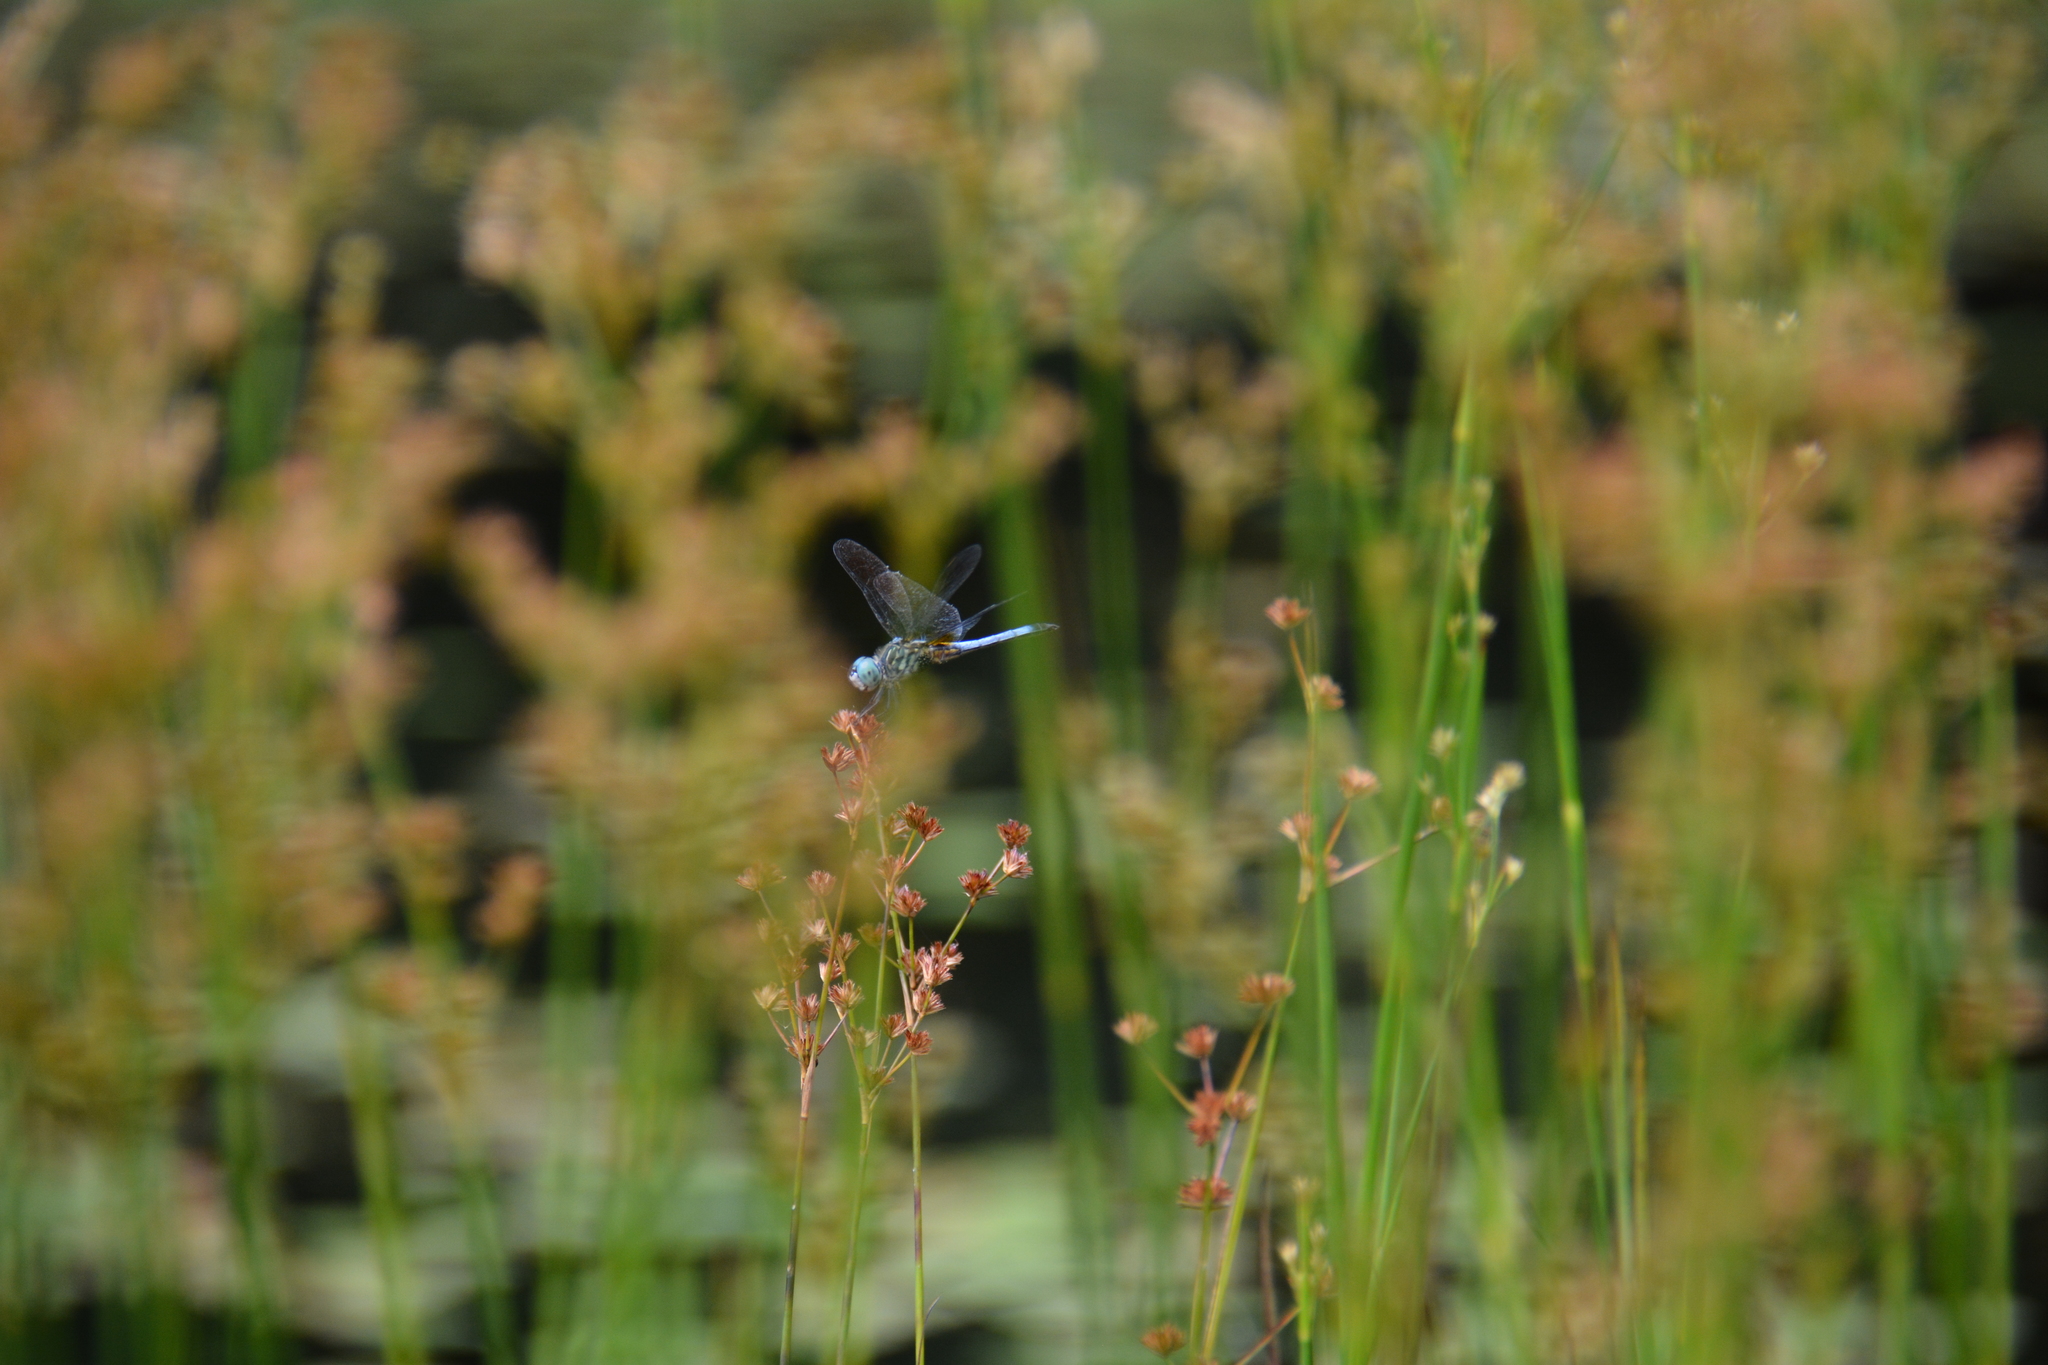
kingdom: Animalia
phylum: Arthropoda
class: Insecta
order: Odonata
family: Libellulidae
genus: Pachydiplax
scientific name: Pachydiplax longipennis
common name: Blue dasher
